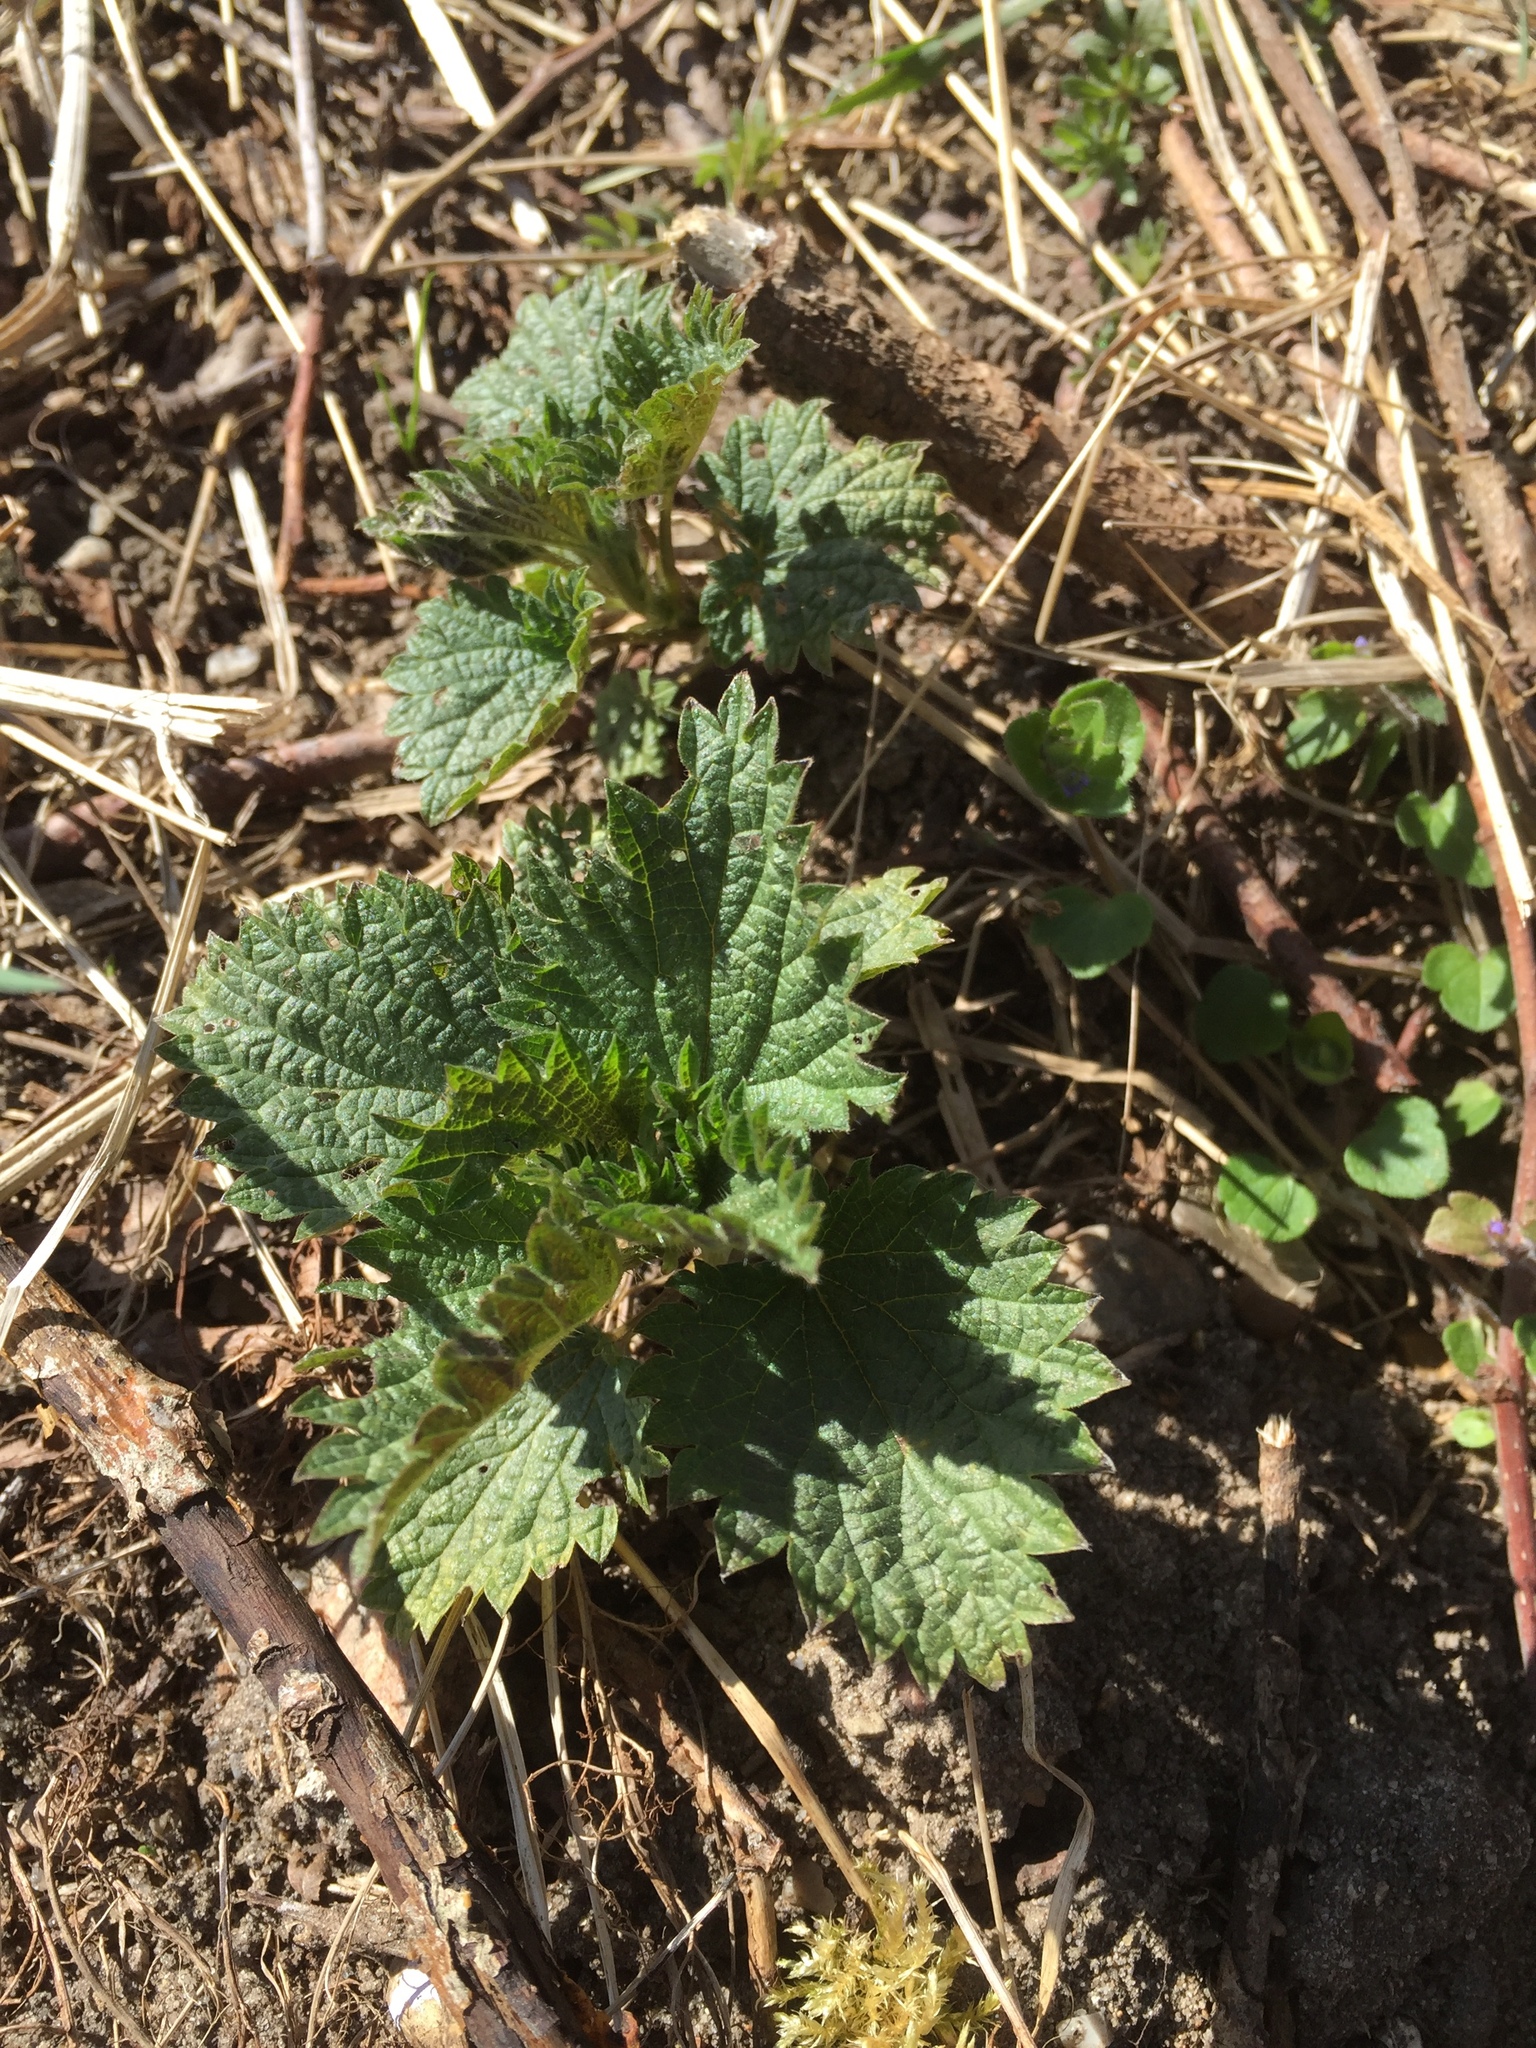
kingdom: Plantae
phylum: Tracheophyta
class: Magnoliopsida
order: Rosales
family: Urticaceae
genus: Urtica
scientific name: Urtica dioica
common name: Common nettle
